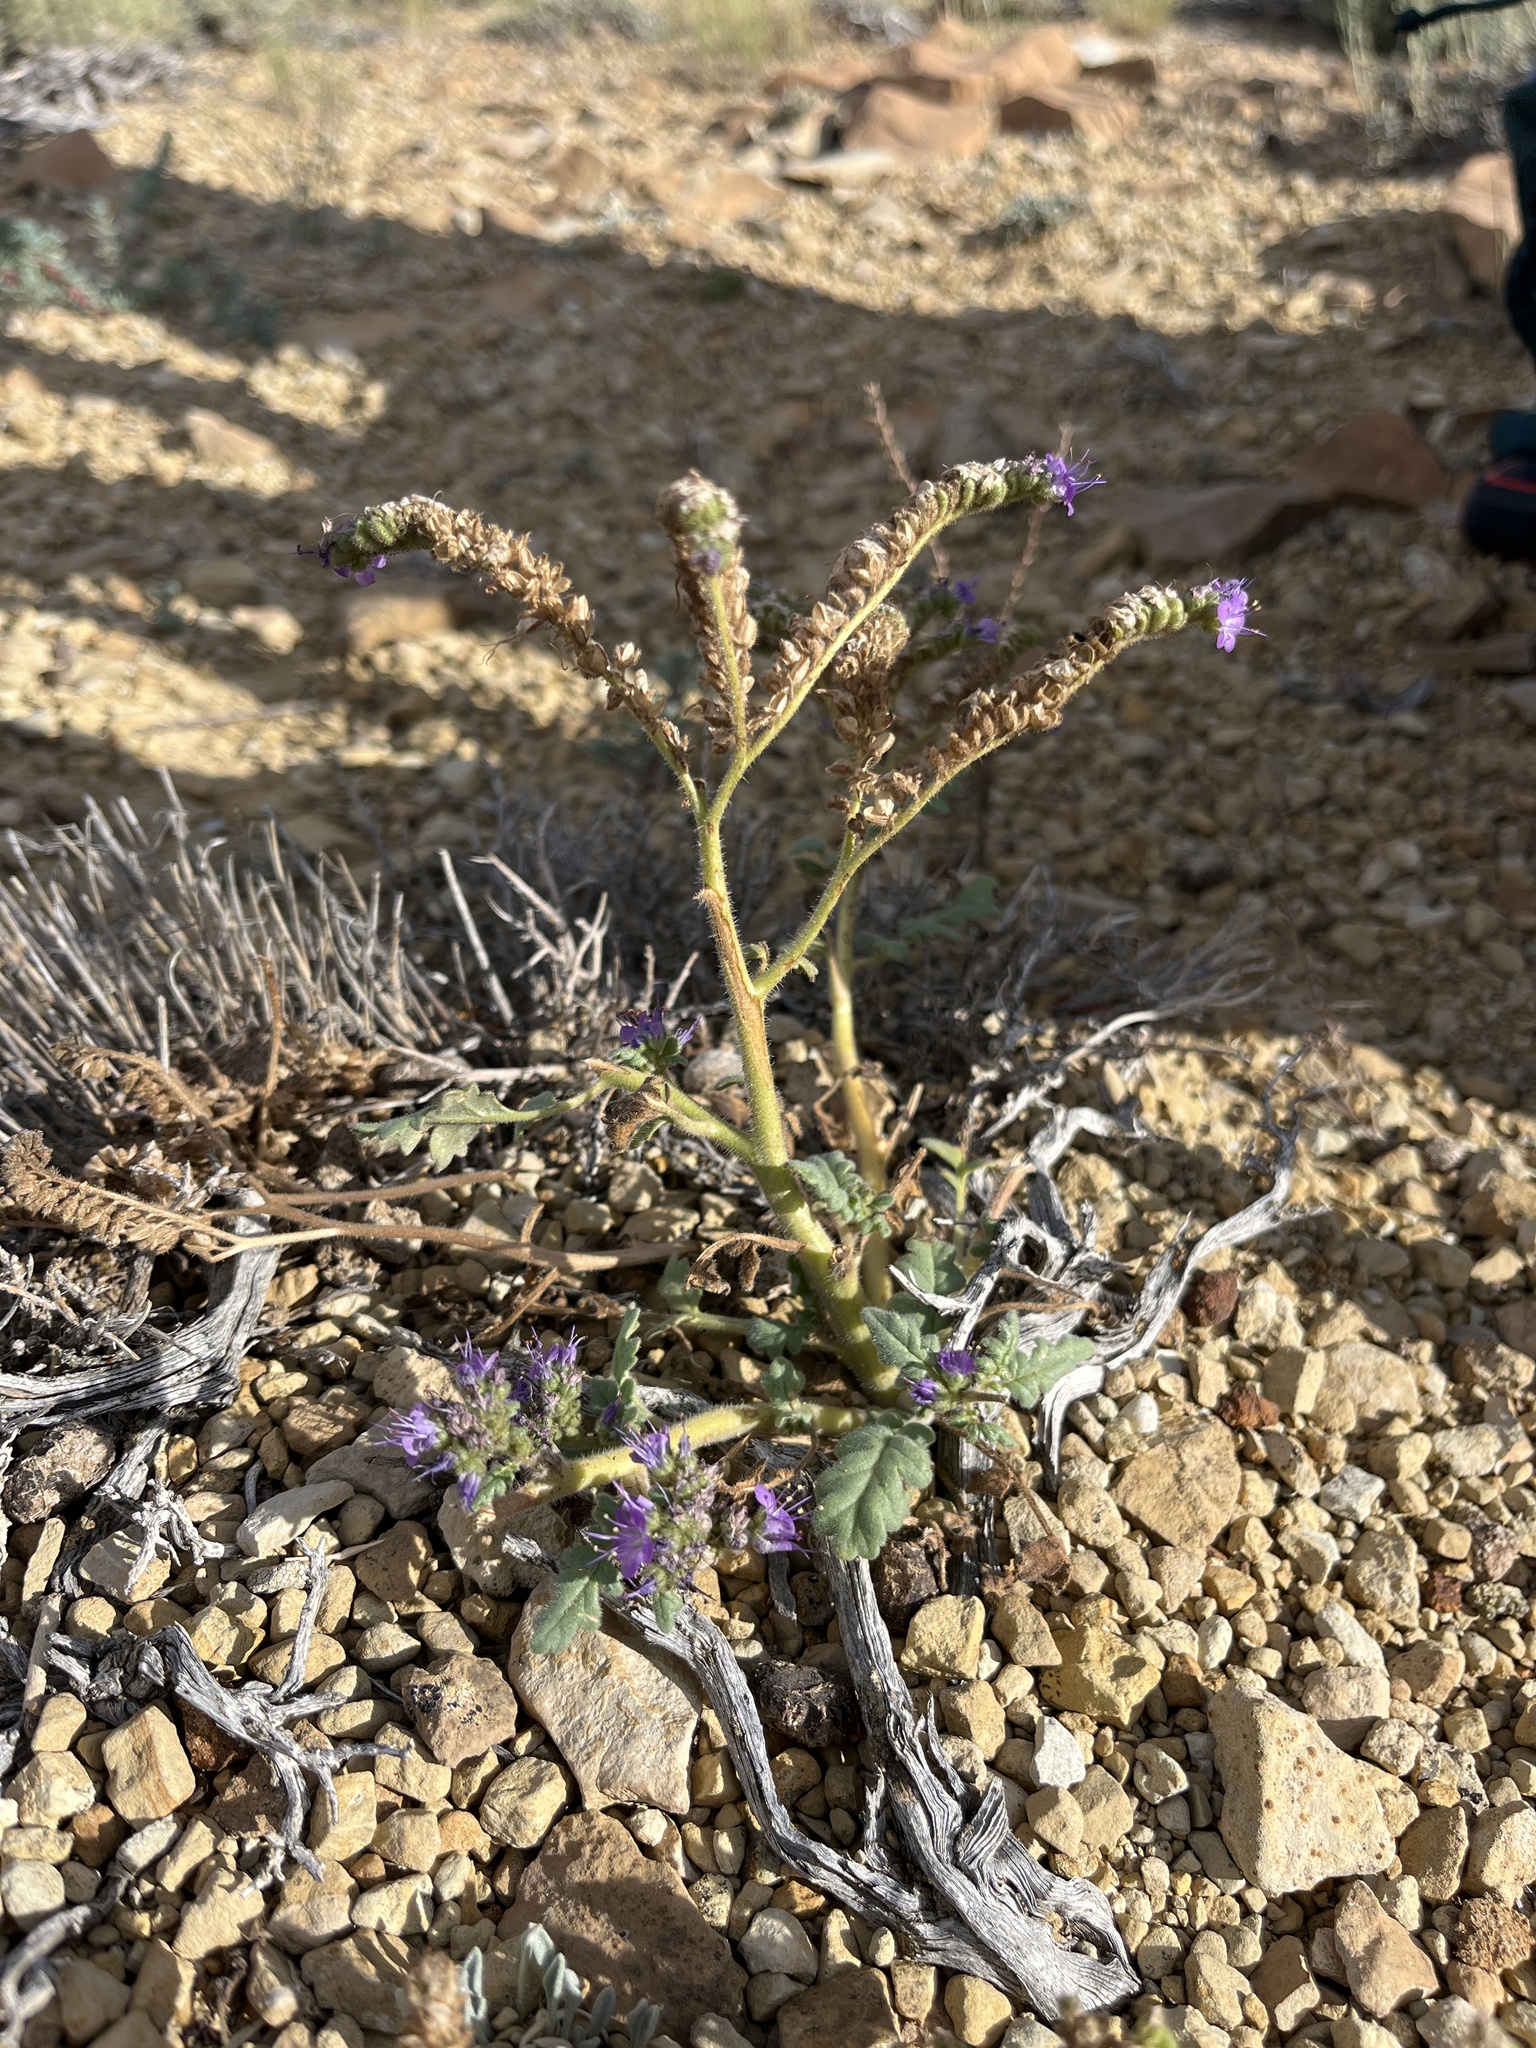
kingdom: Plantae
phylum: Tracheophyta
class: Magnoliopsida
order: Boraginales
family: Hydrophyllaceae
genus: Phacelia
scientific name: Phacelia deserta
